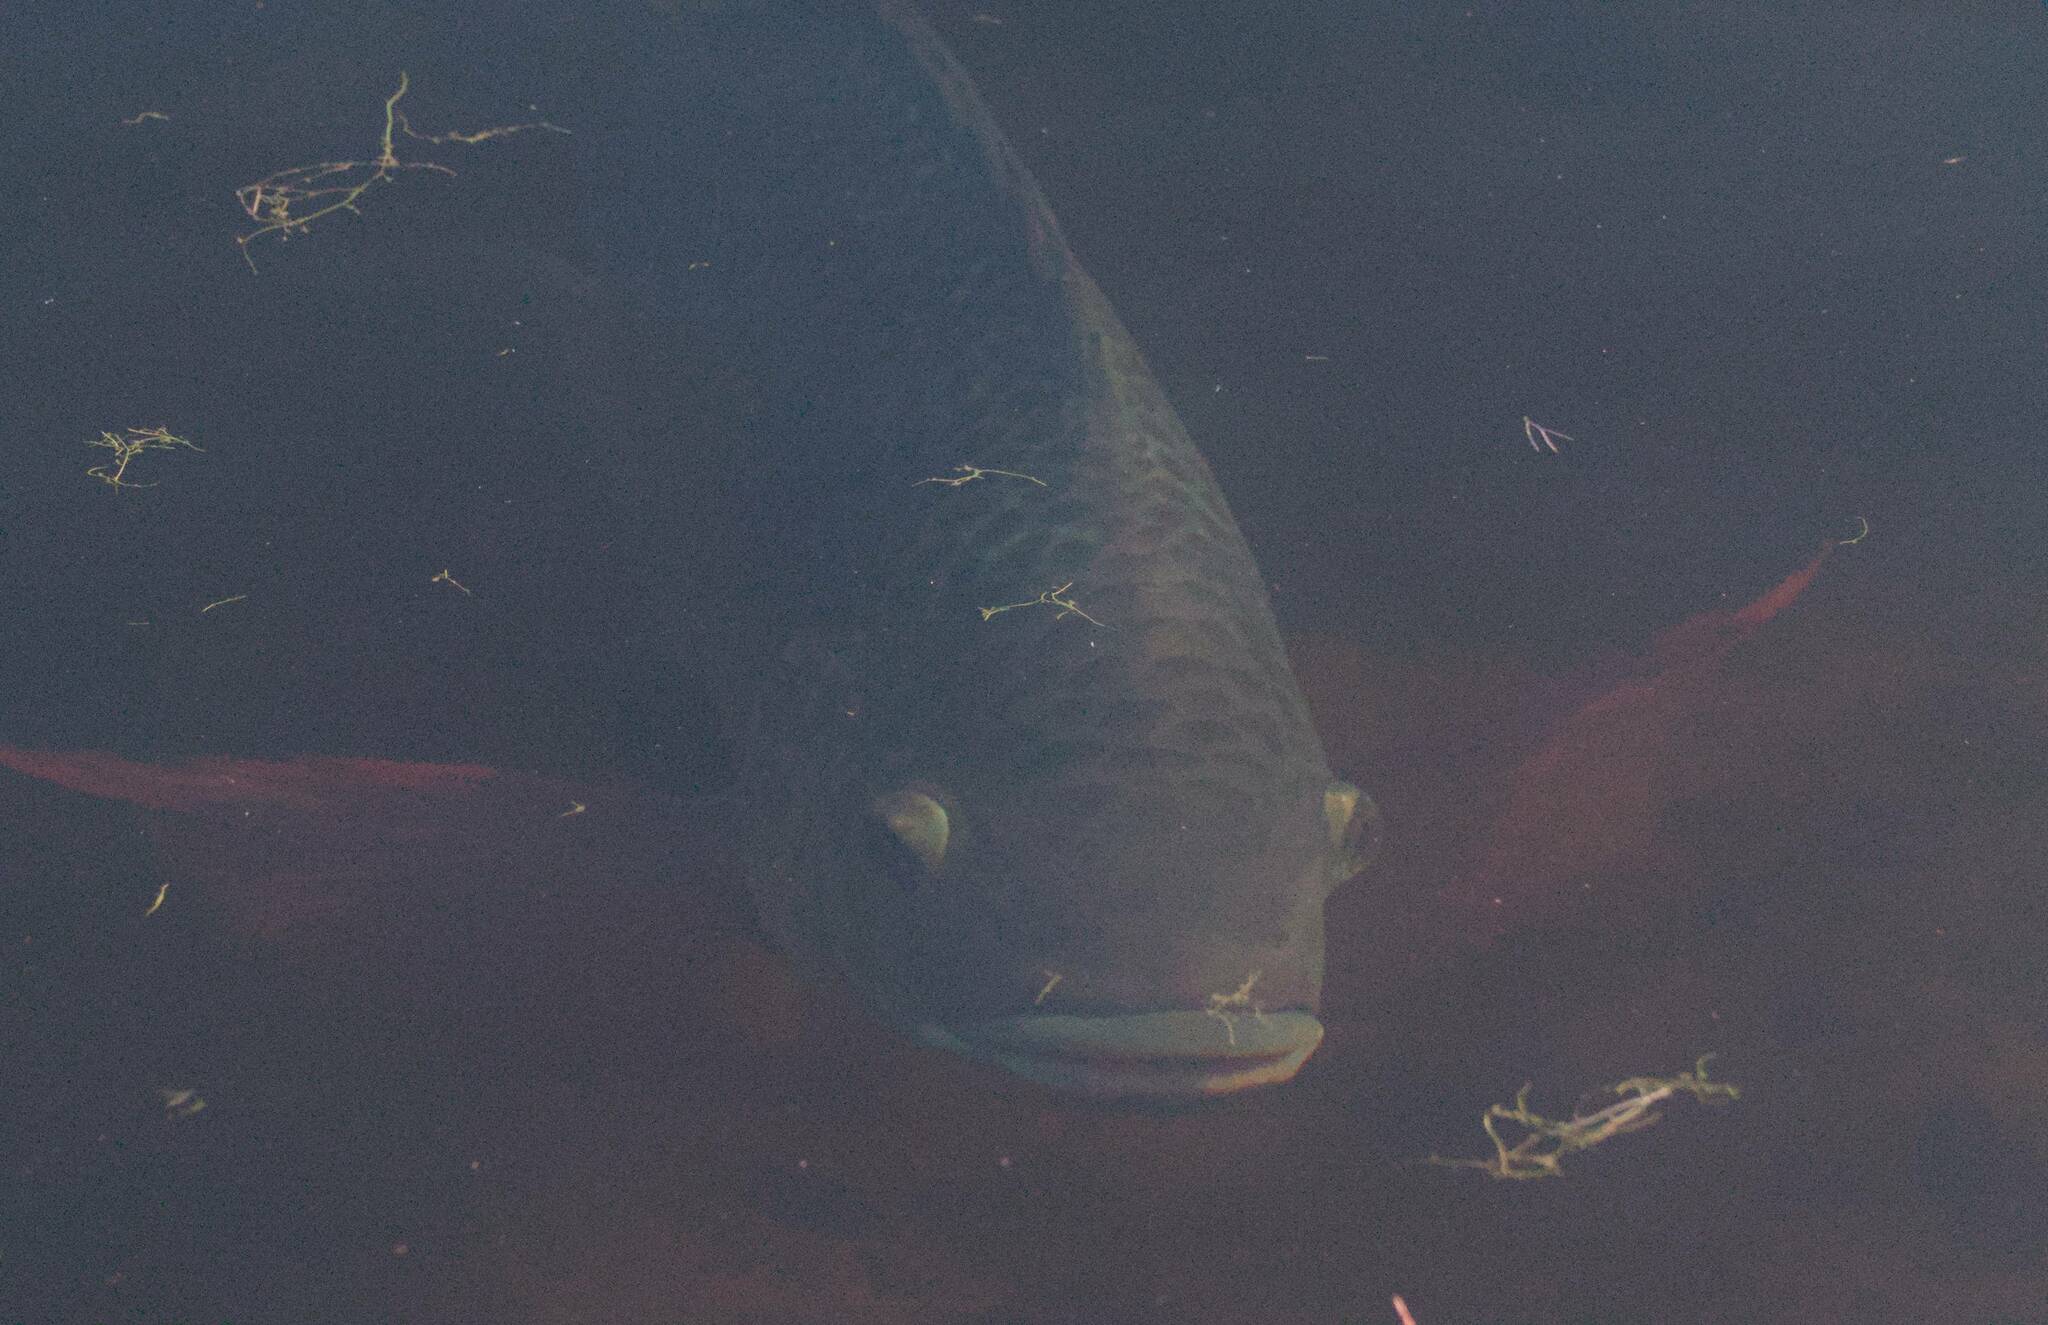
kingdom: Animalia
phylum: Chordata
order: Perciformes
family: Cichlidae
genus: Oreochromis
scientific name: Oreochromis aureus
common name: Blue tilapia
